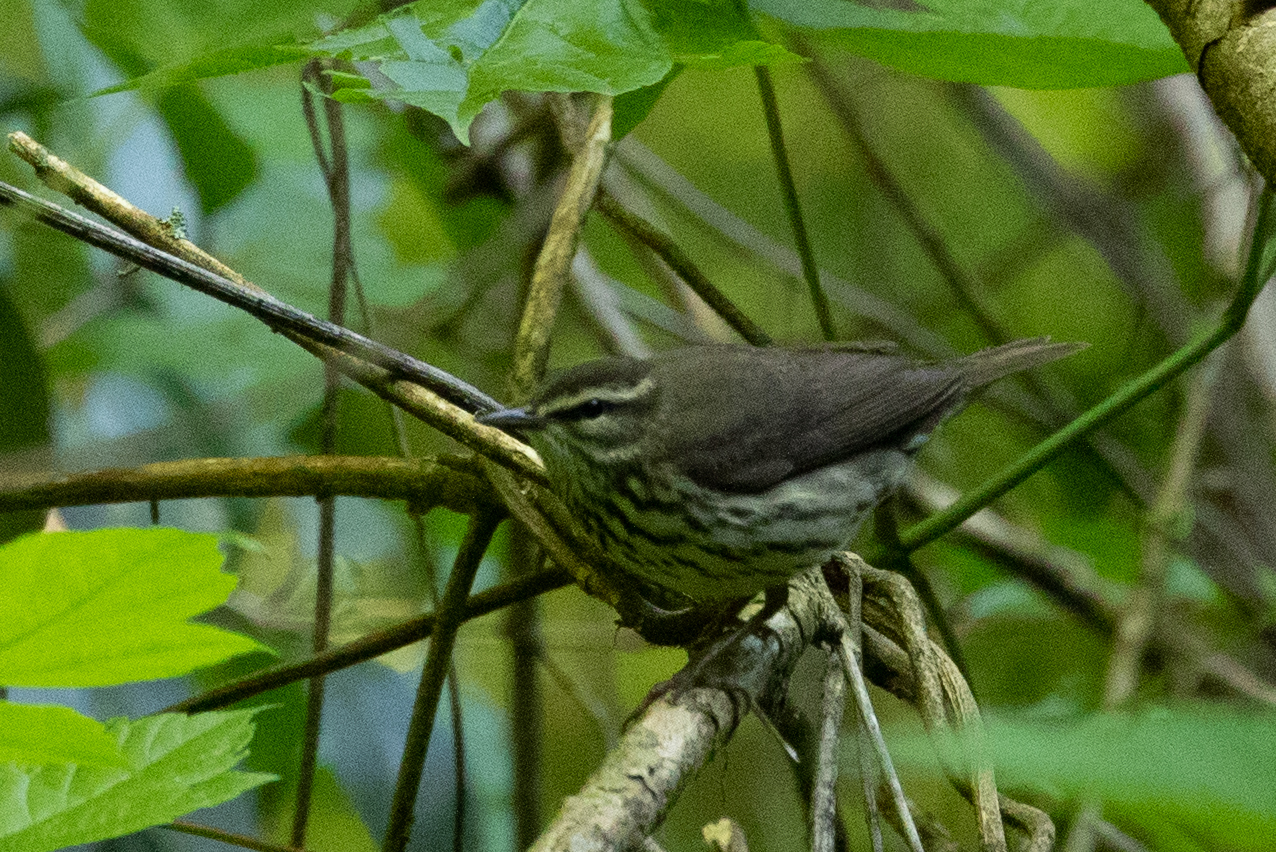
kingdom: Animalia
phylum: Chordata
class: Aves
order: Passeriformes
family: Parulidae
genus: Parkesia
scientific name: Parkesia noveboracensis
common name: Northern waterthrush
